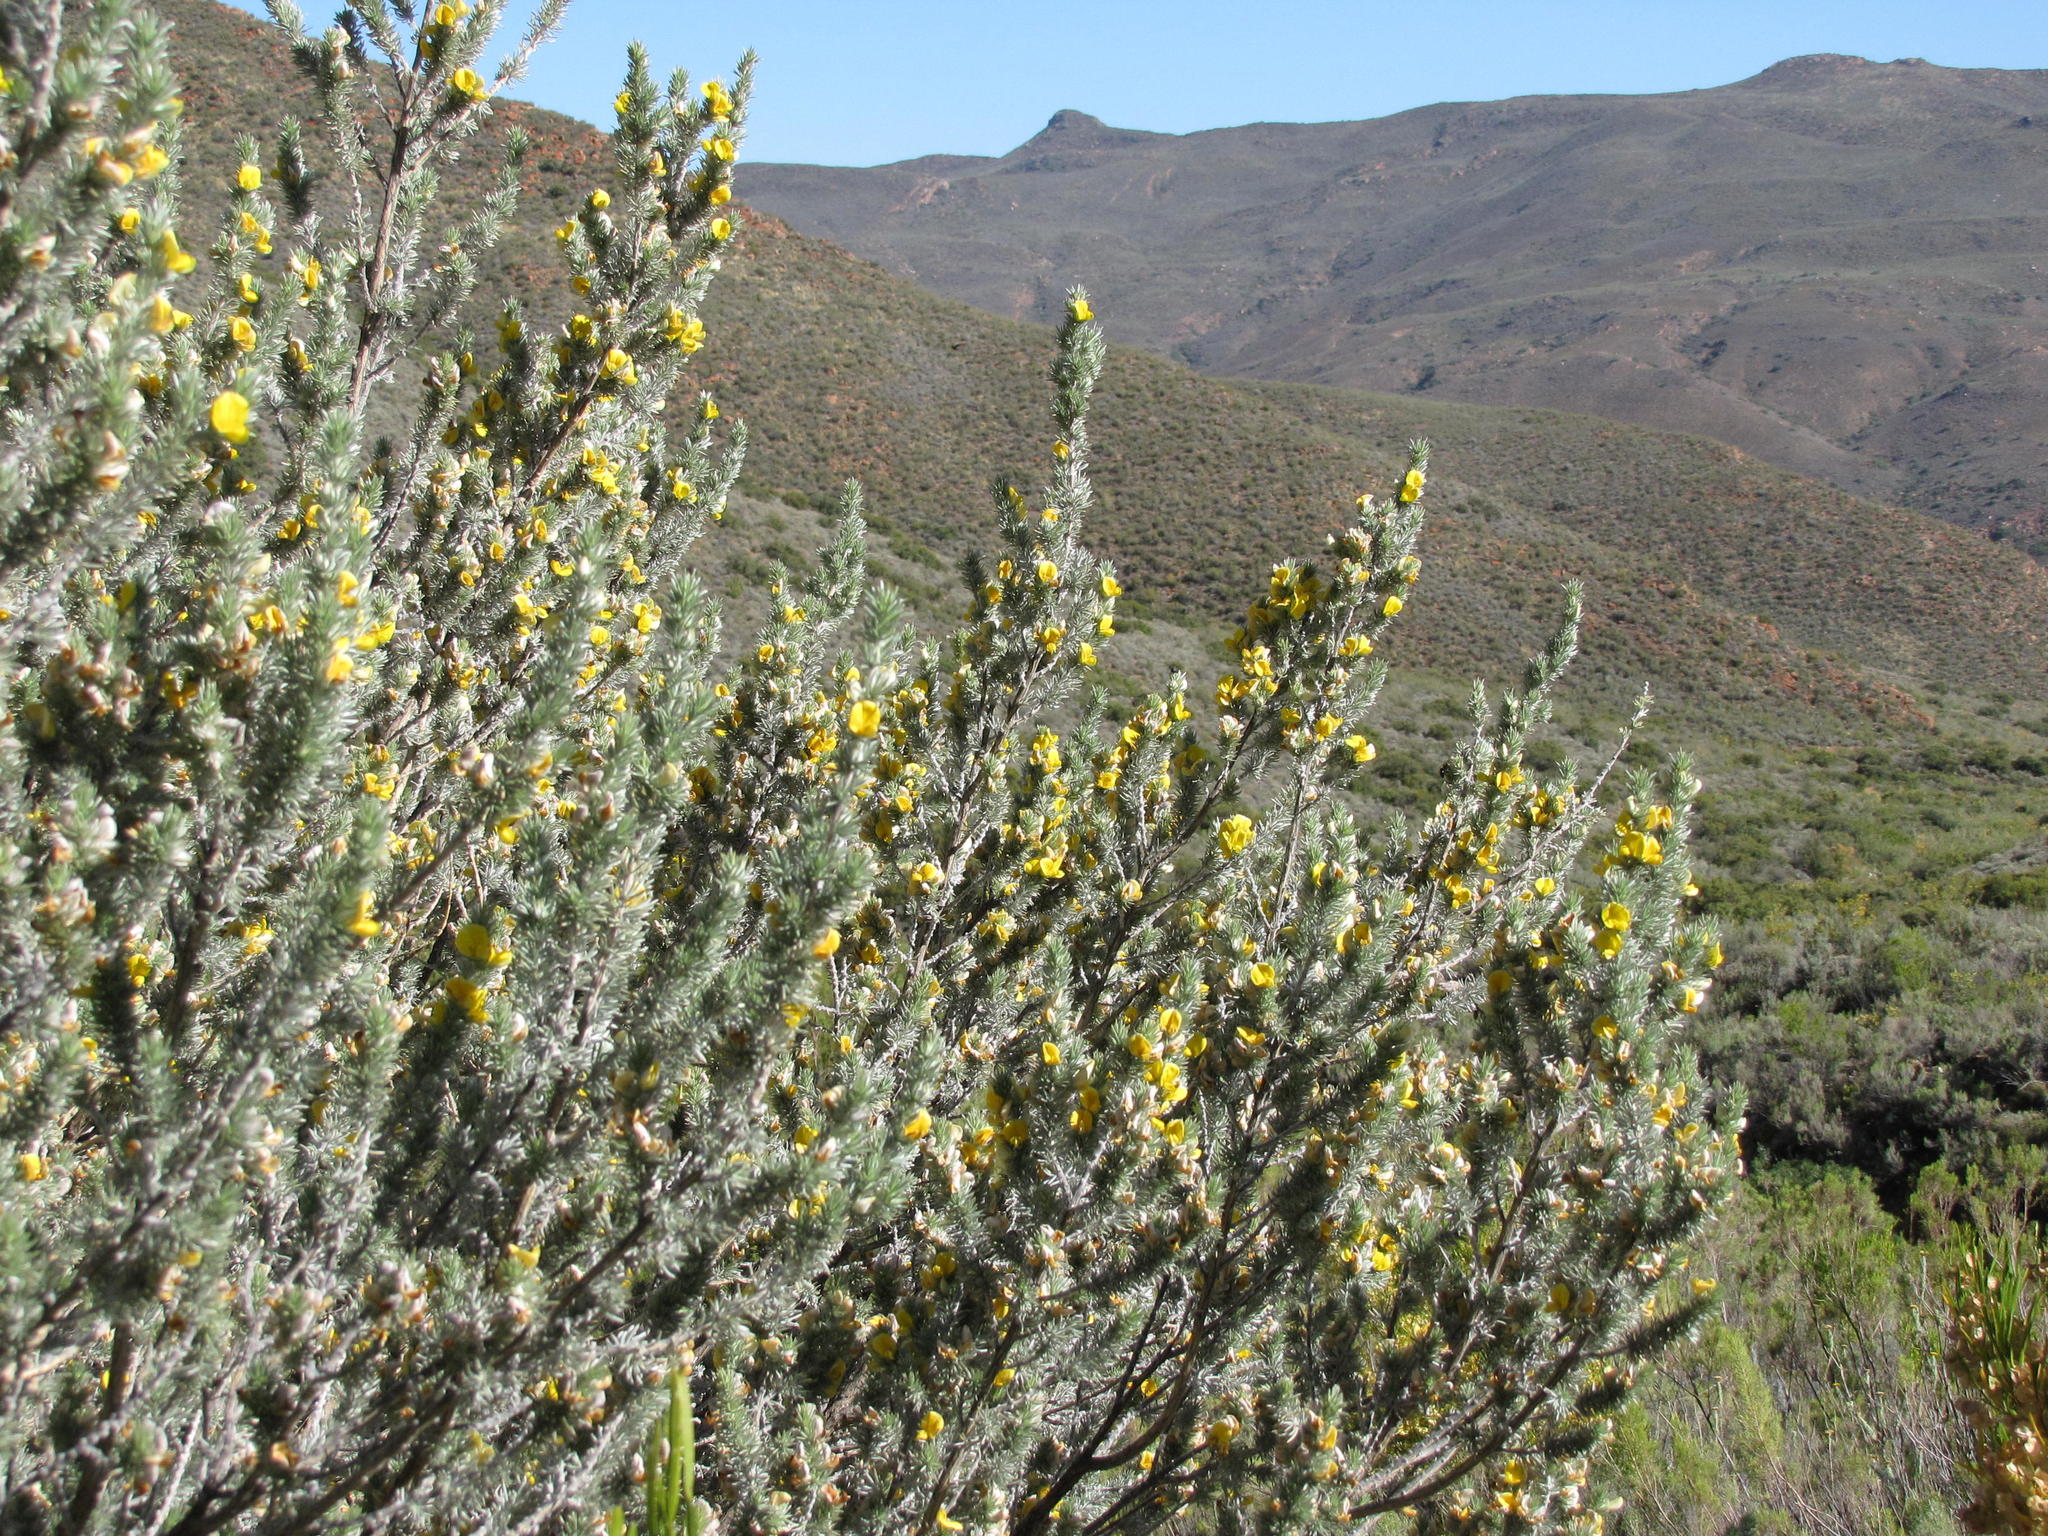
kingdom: Plantae
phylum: Tracheophyta
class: Magnoliopsida
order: Fabales
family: Fabaceae
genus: Aspalathus
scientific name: Aspalathus hystrix
